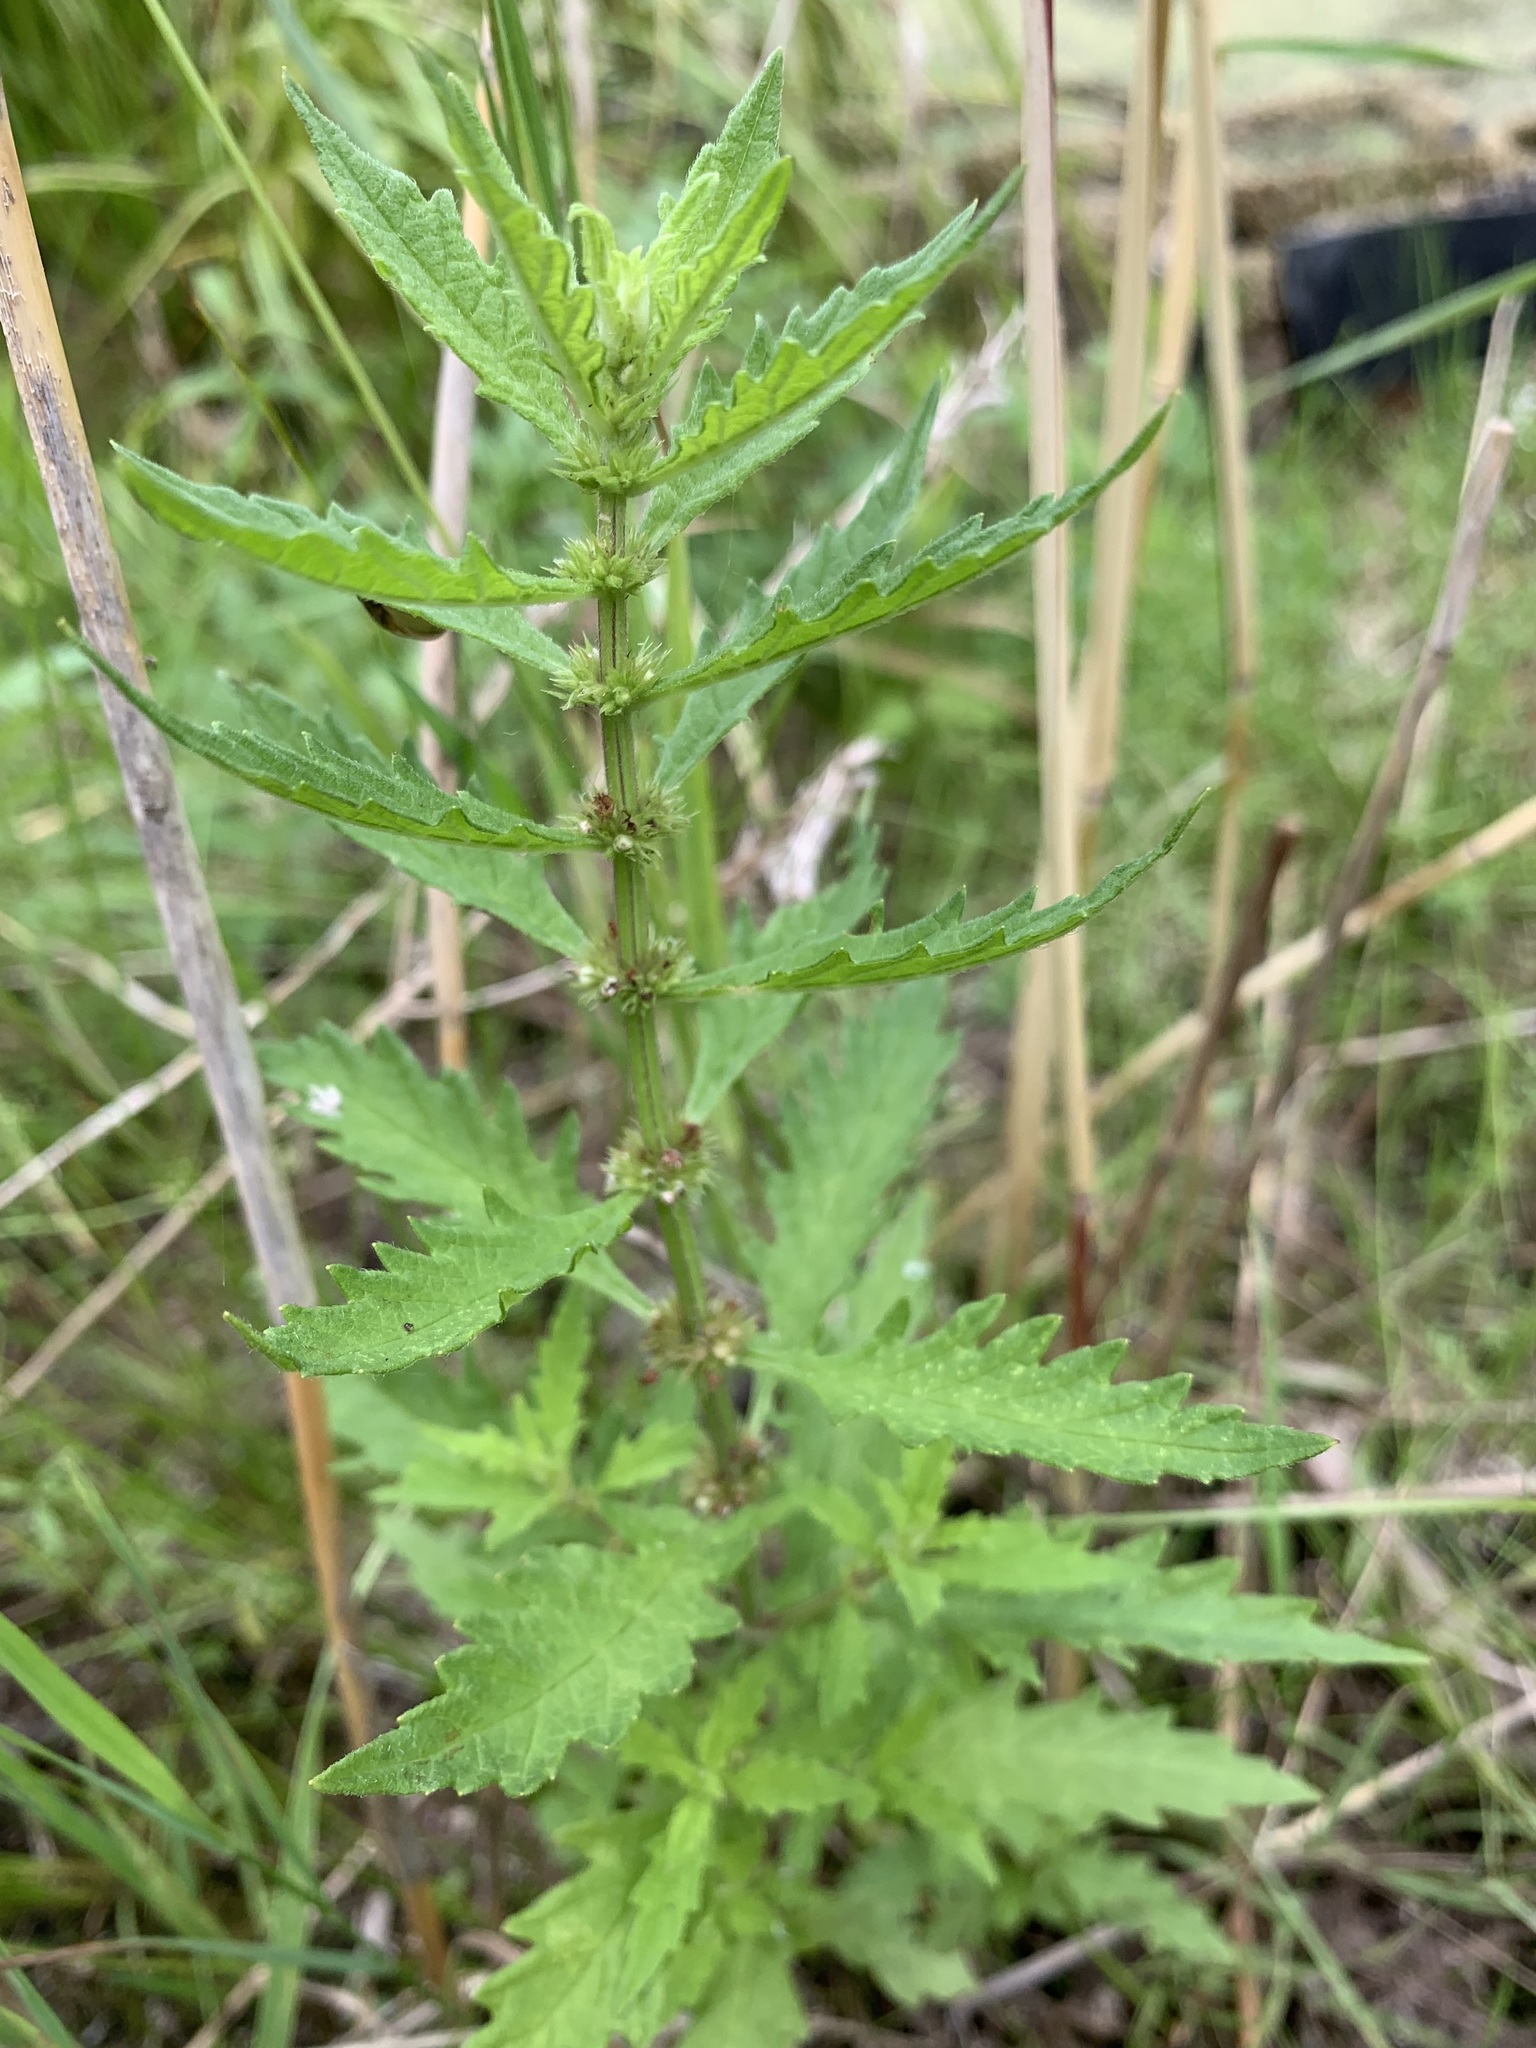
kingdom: Plantae
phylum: Tracheophyta
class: Magnoliopsida
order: Lamiales
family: Lamiaceae
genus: Lycopus
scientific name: Lycopus europaeus
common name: European bugleweed
